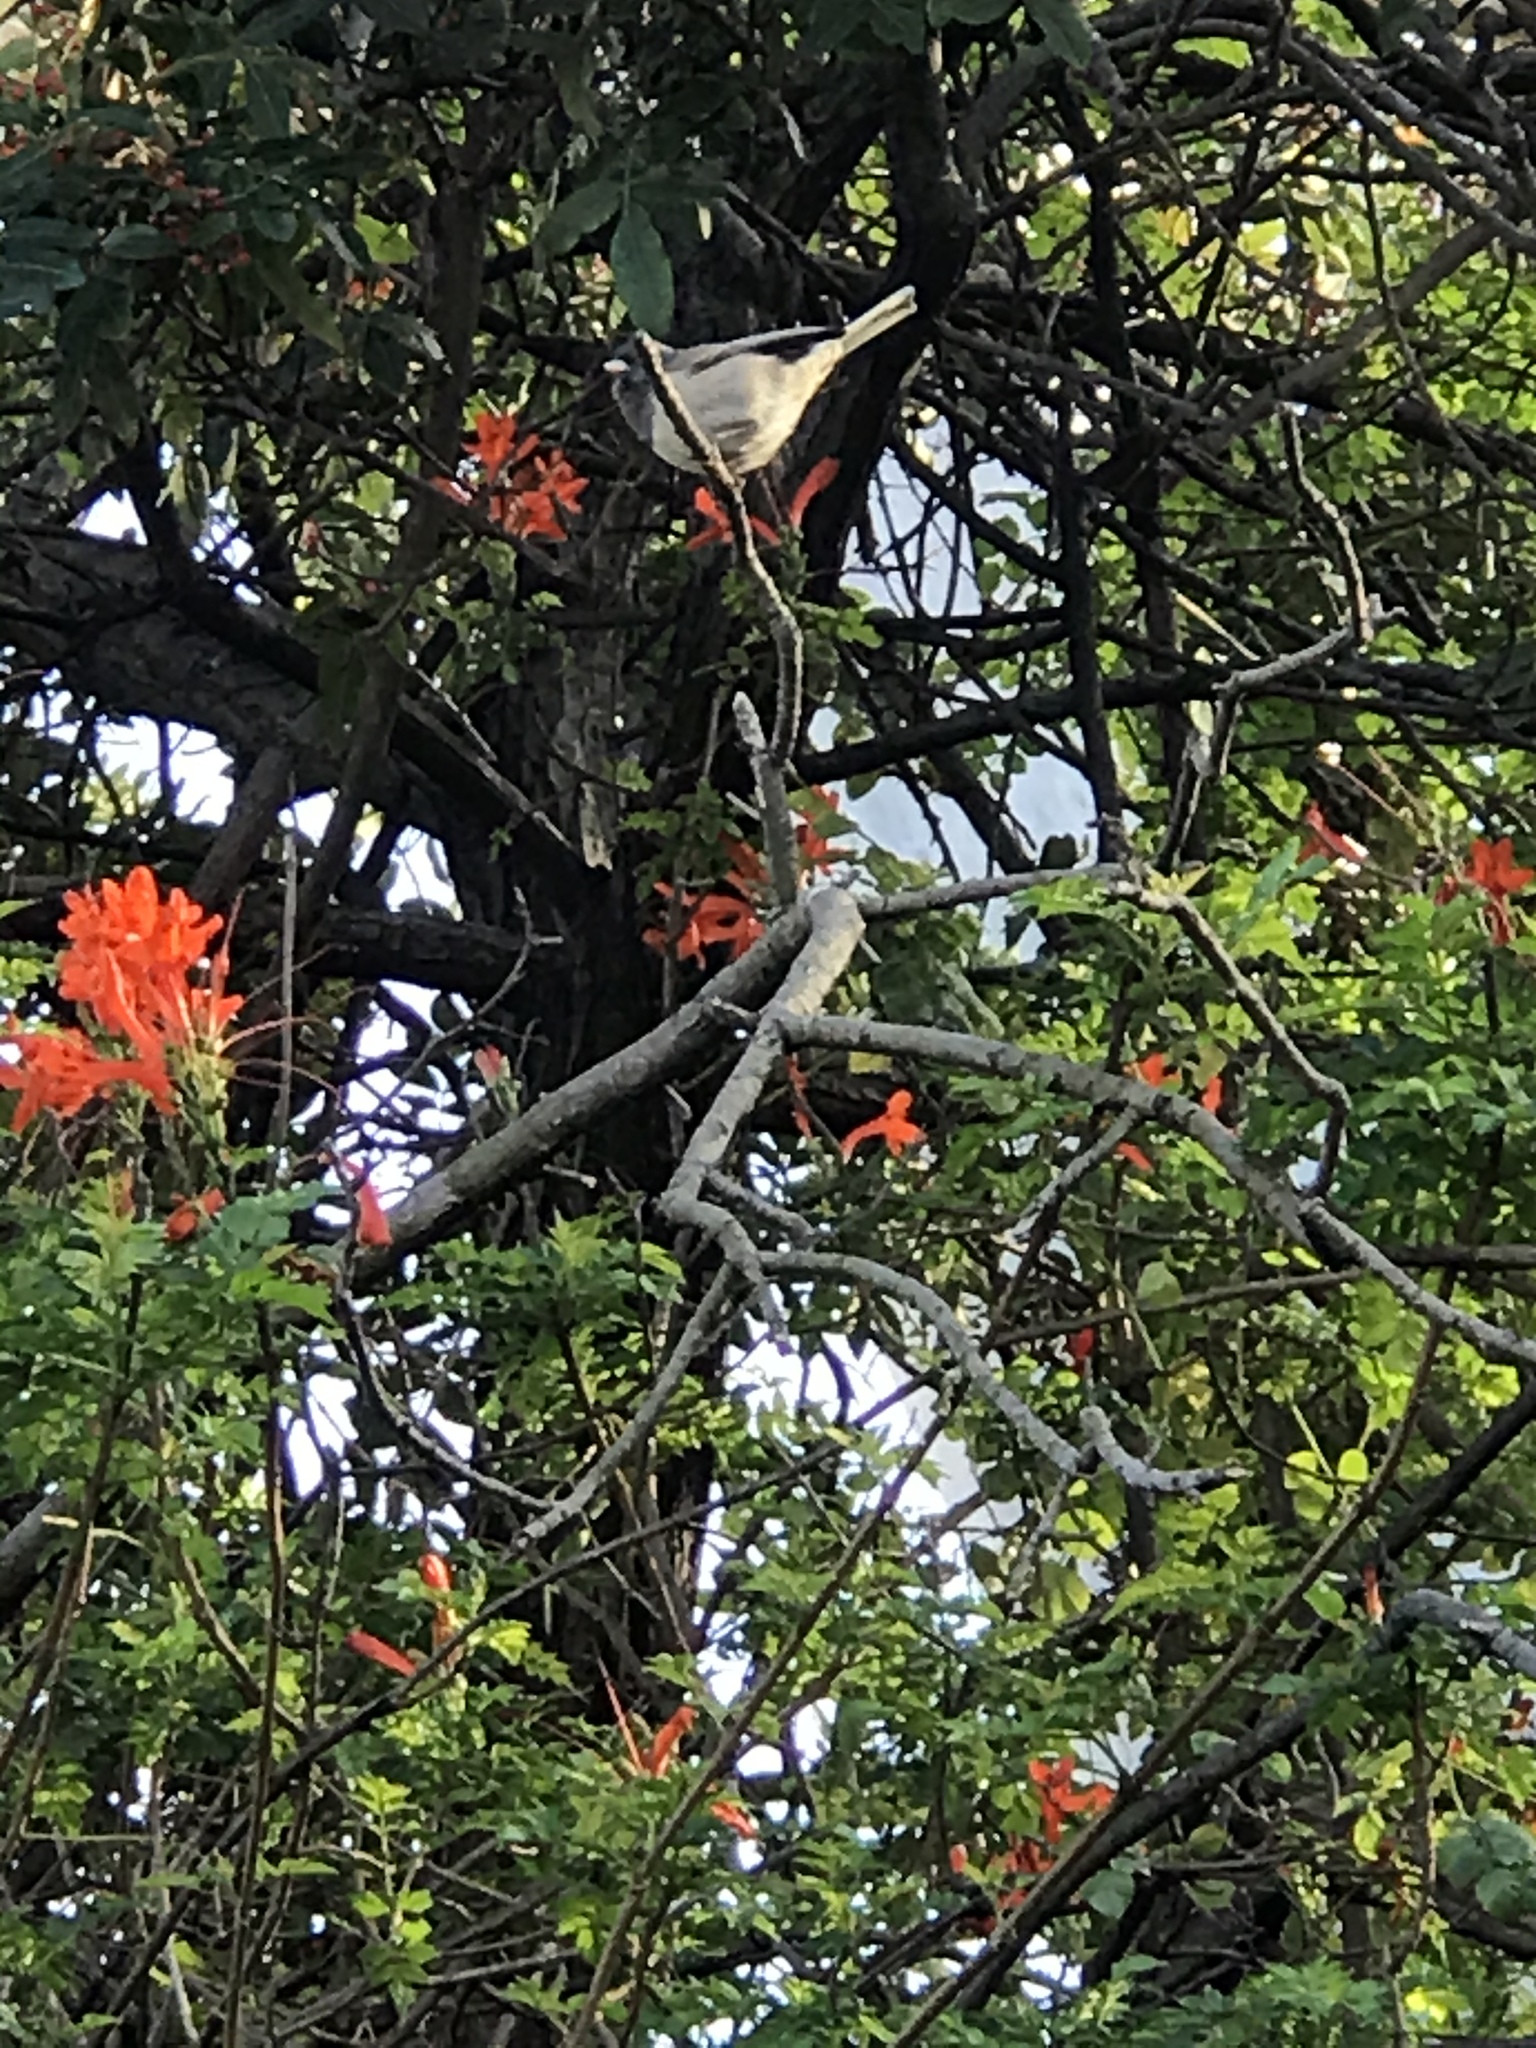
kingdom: Animalia
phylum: Chordata
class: Aves
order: Passeriformes
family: Passerellidae
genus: Junco
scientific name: Junco hyemalis
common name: Dark-eyed junco
